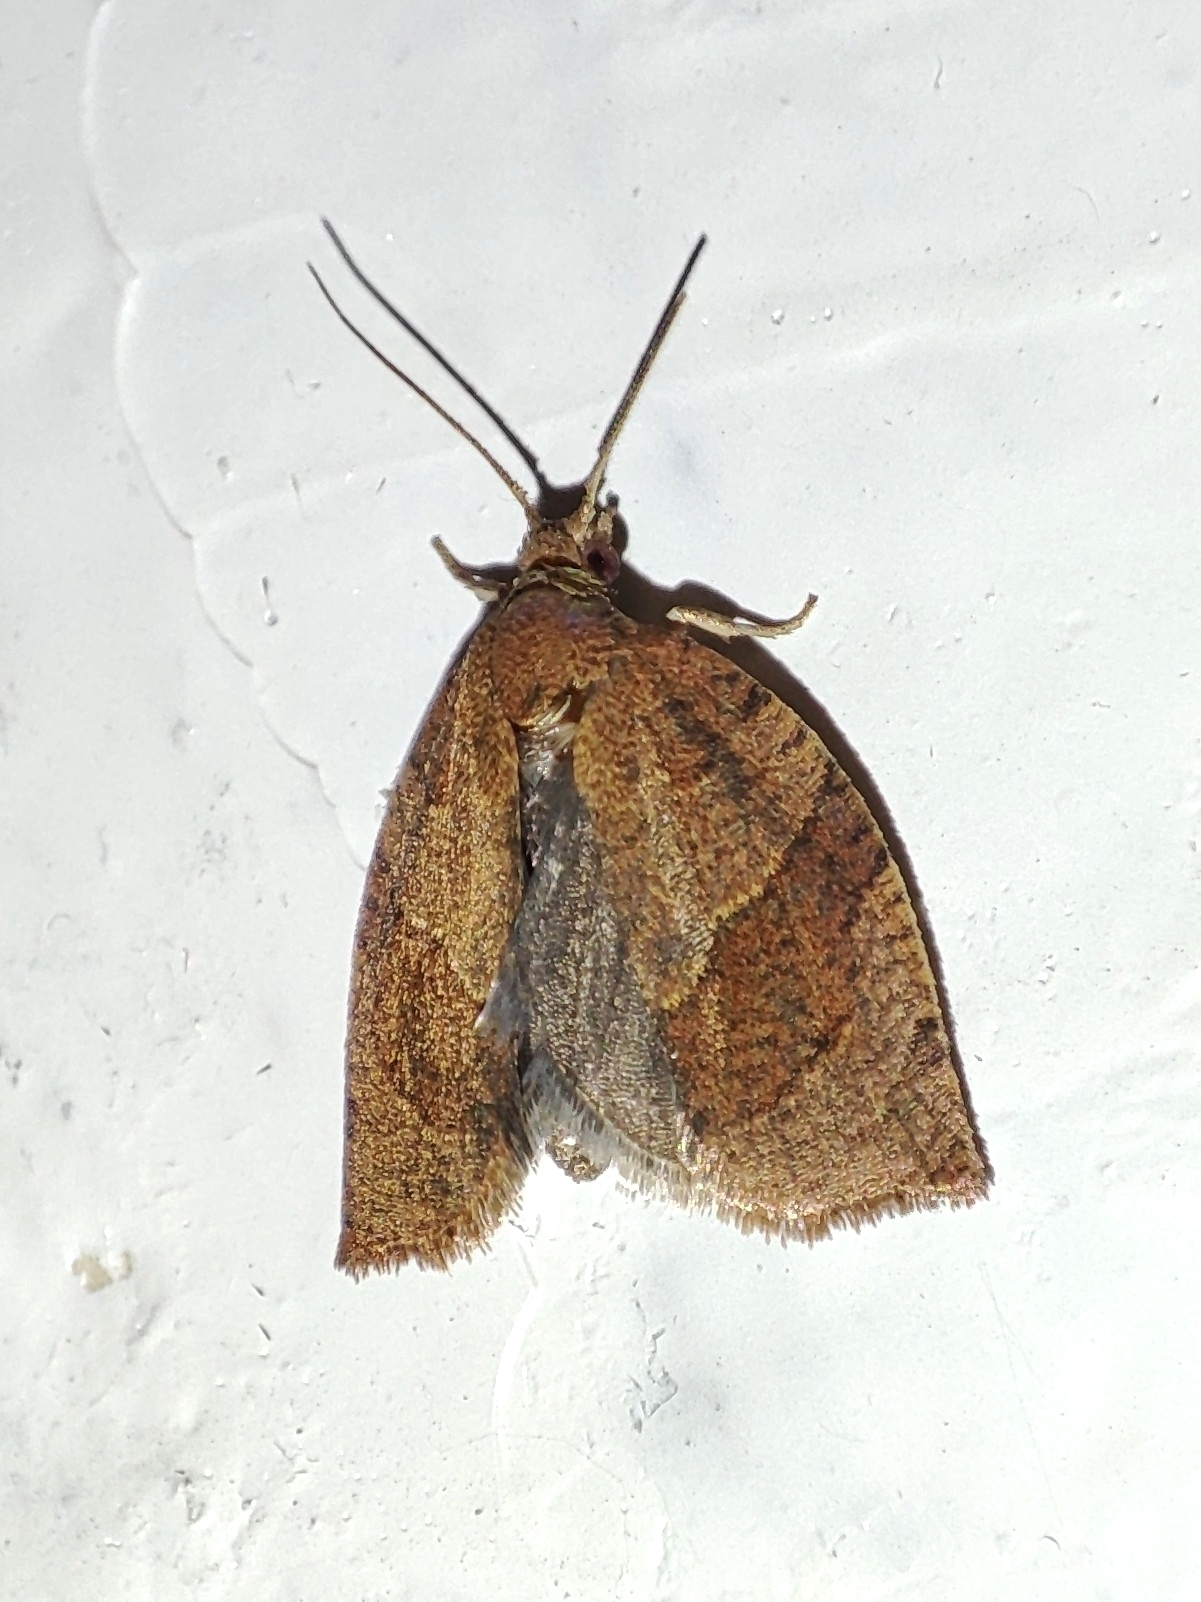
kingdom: Animalia
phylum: Arthropoda
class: Insecta
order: Lepidoptera
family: Tortricidae
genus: Pandemis
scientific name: Pandemis heparana
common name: Dark fruit-tree tortrix
